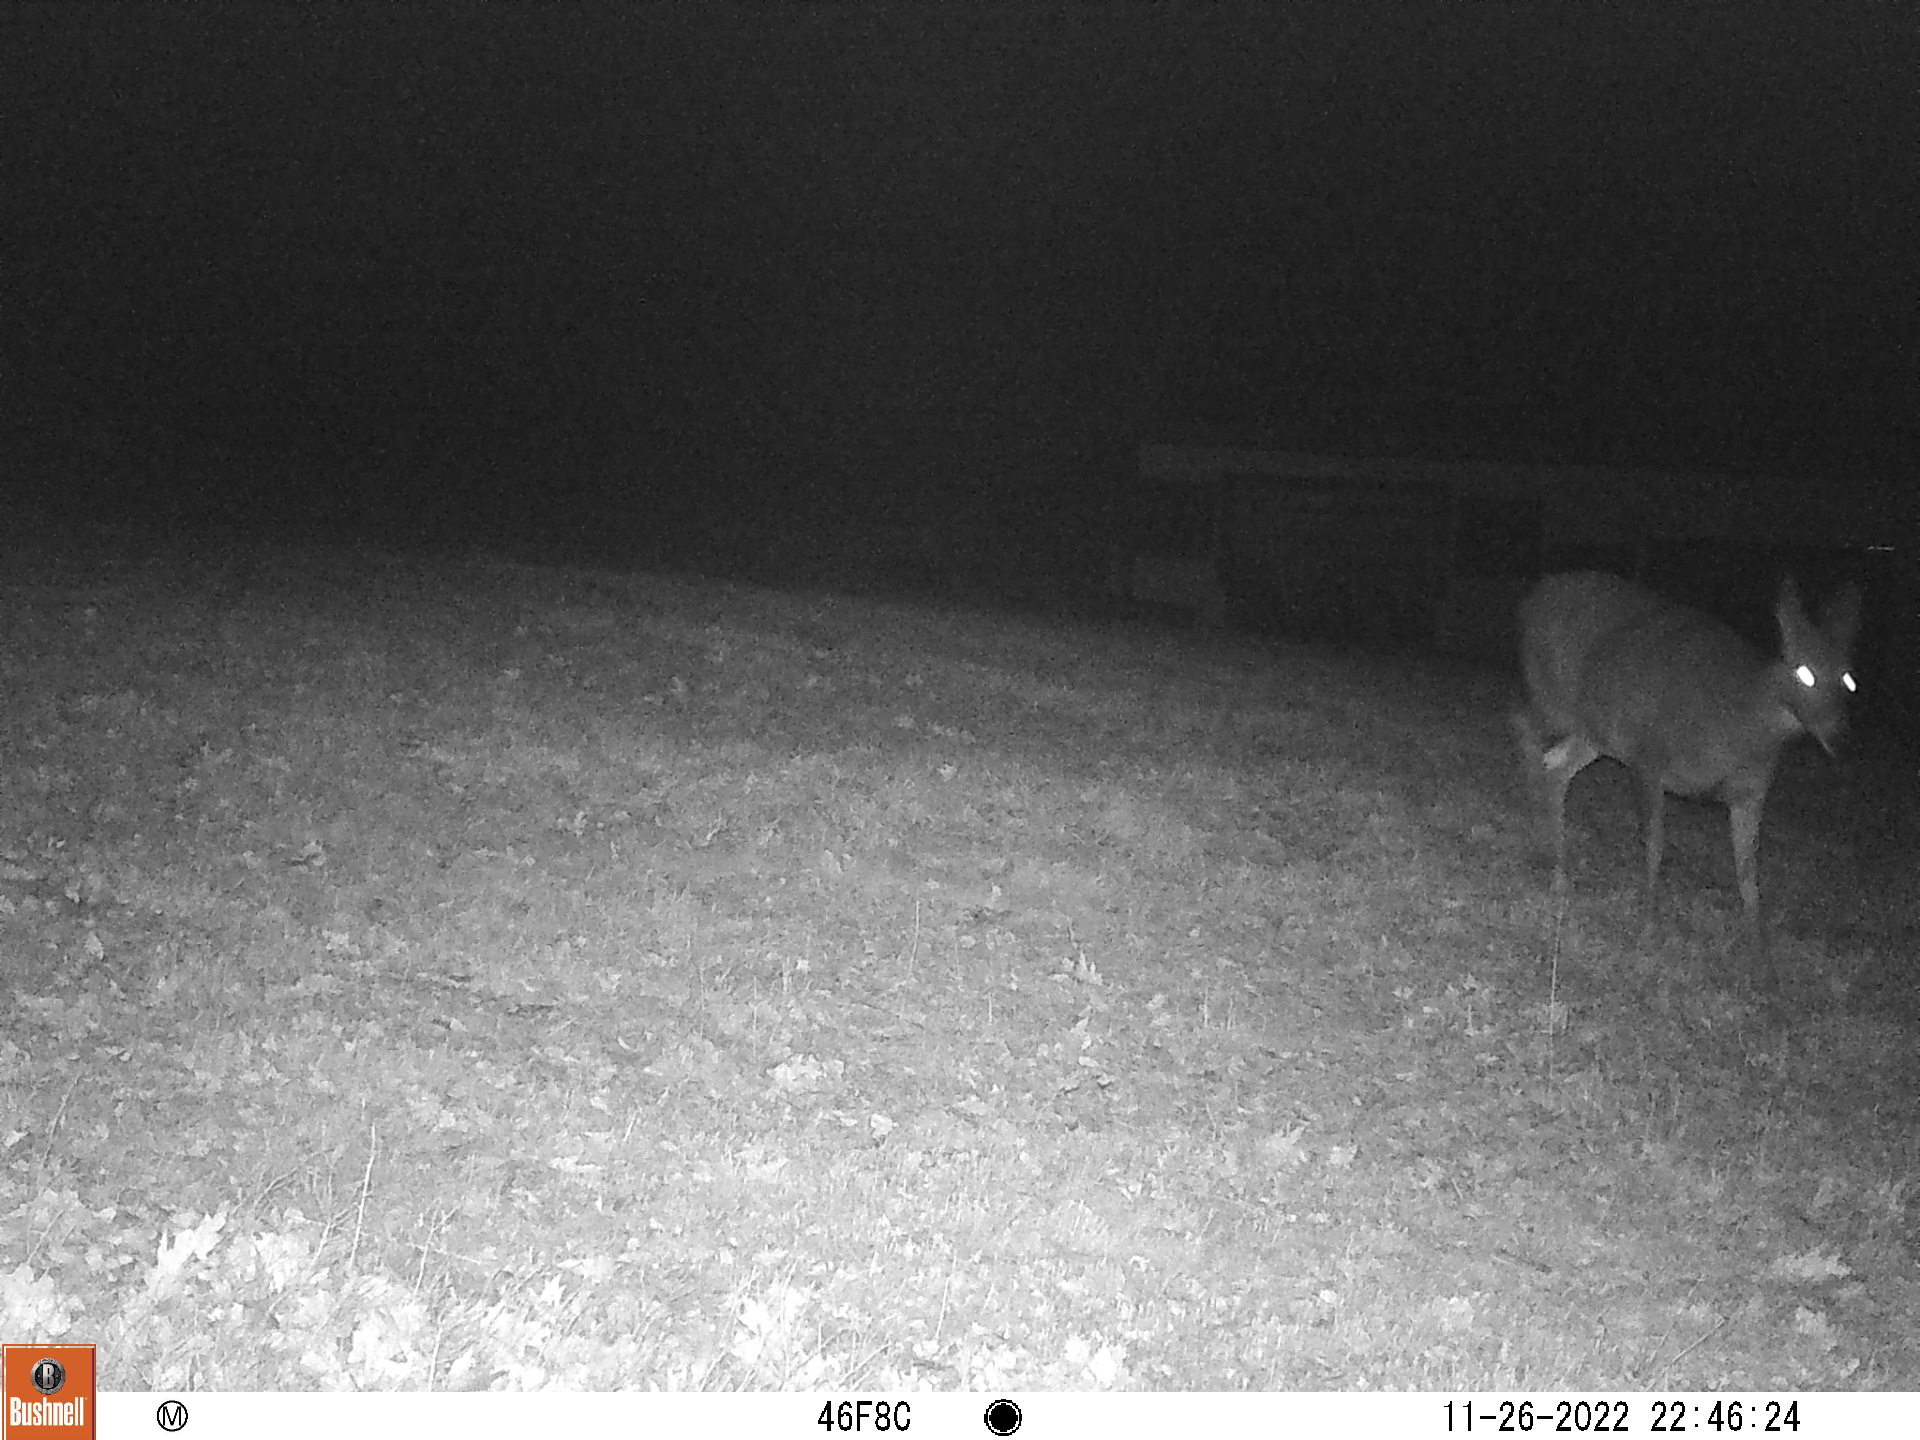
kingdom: Animalia
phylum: Chordata
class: Mammalia
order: Artiodactyla
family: Cervidae
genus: Odocoileus
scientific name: Odocoileus virginianus
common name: White-tailed deer
